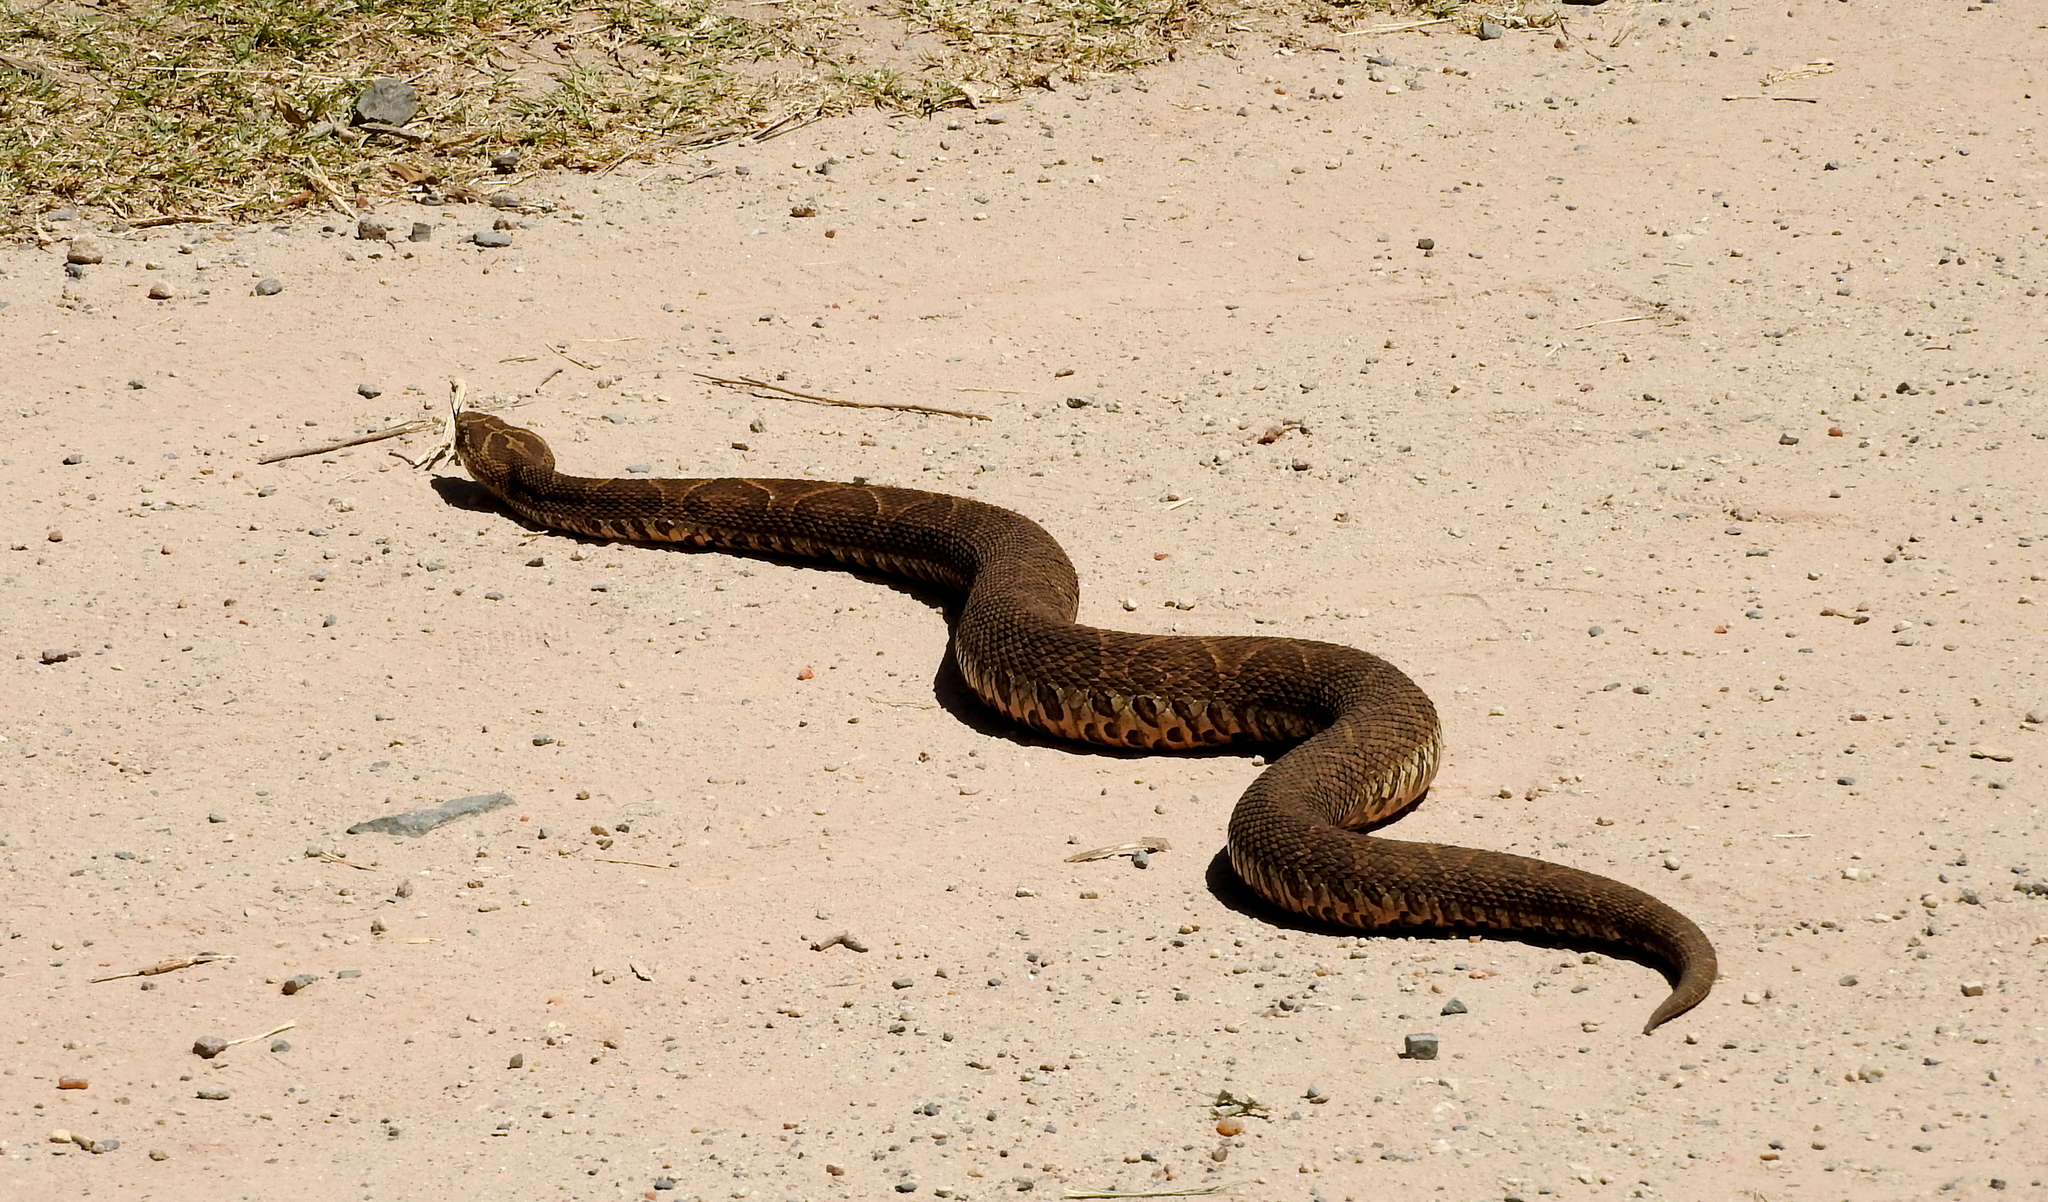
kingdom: Animalia
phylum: Chordata
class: Squamata
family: Viperidae
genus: Bothrops
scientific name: Bothrops alternatus
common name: Urutu
